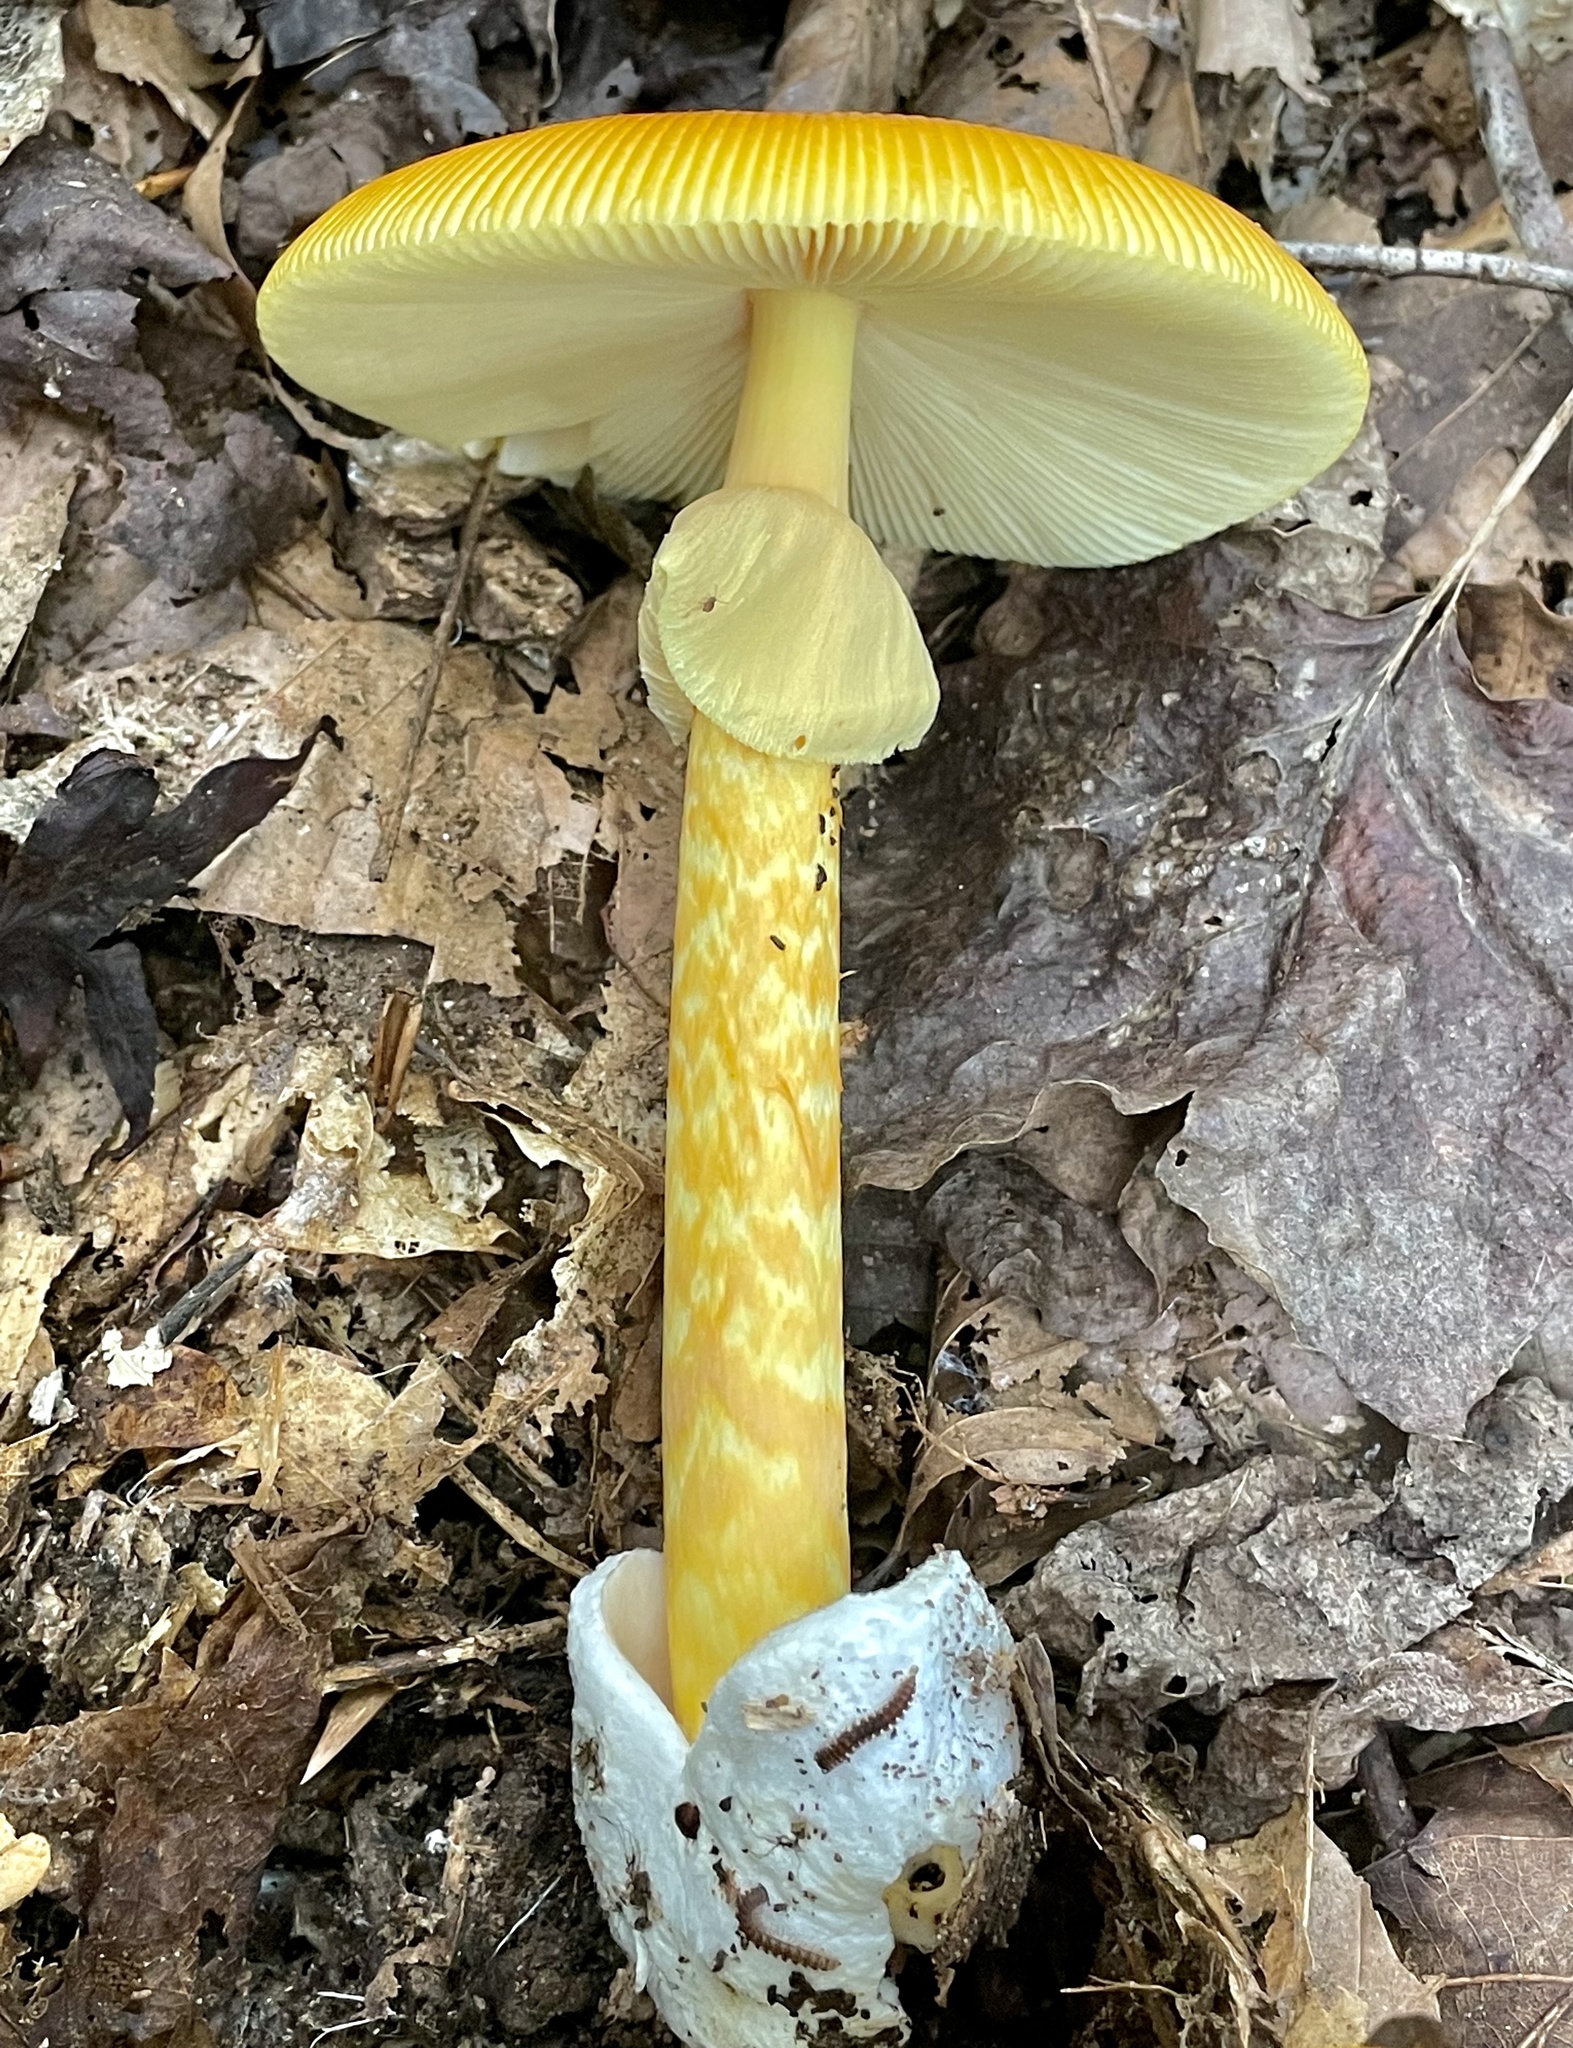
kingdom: Fungi
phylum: Basidiomycota
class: Agaricomycetes
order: Agaricales
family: Amanitaceae
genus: Amanita
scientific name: Amanita jacksonii
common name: Jackson's slender caesar
